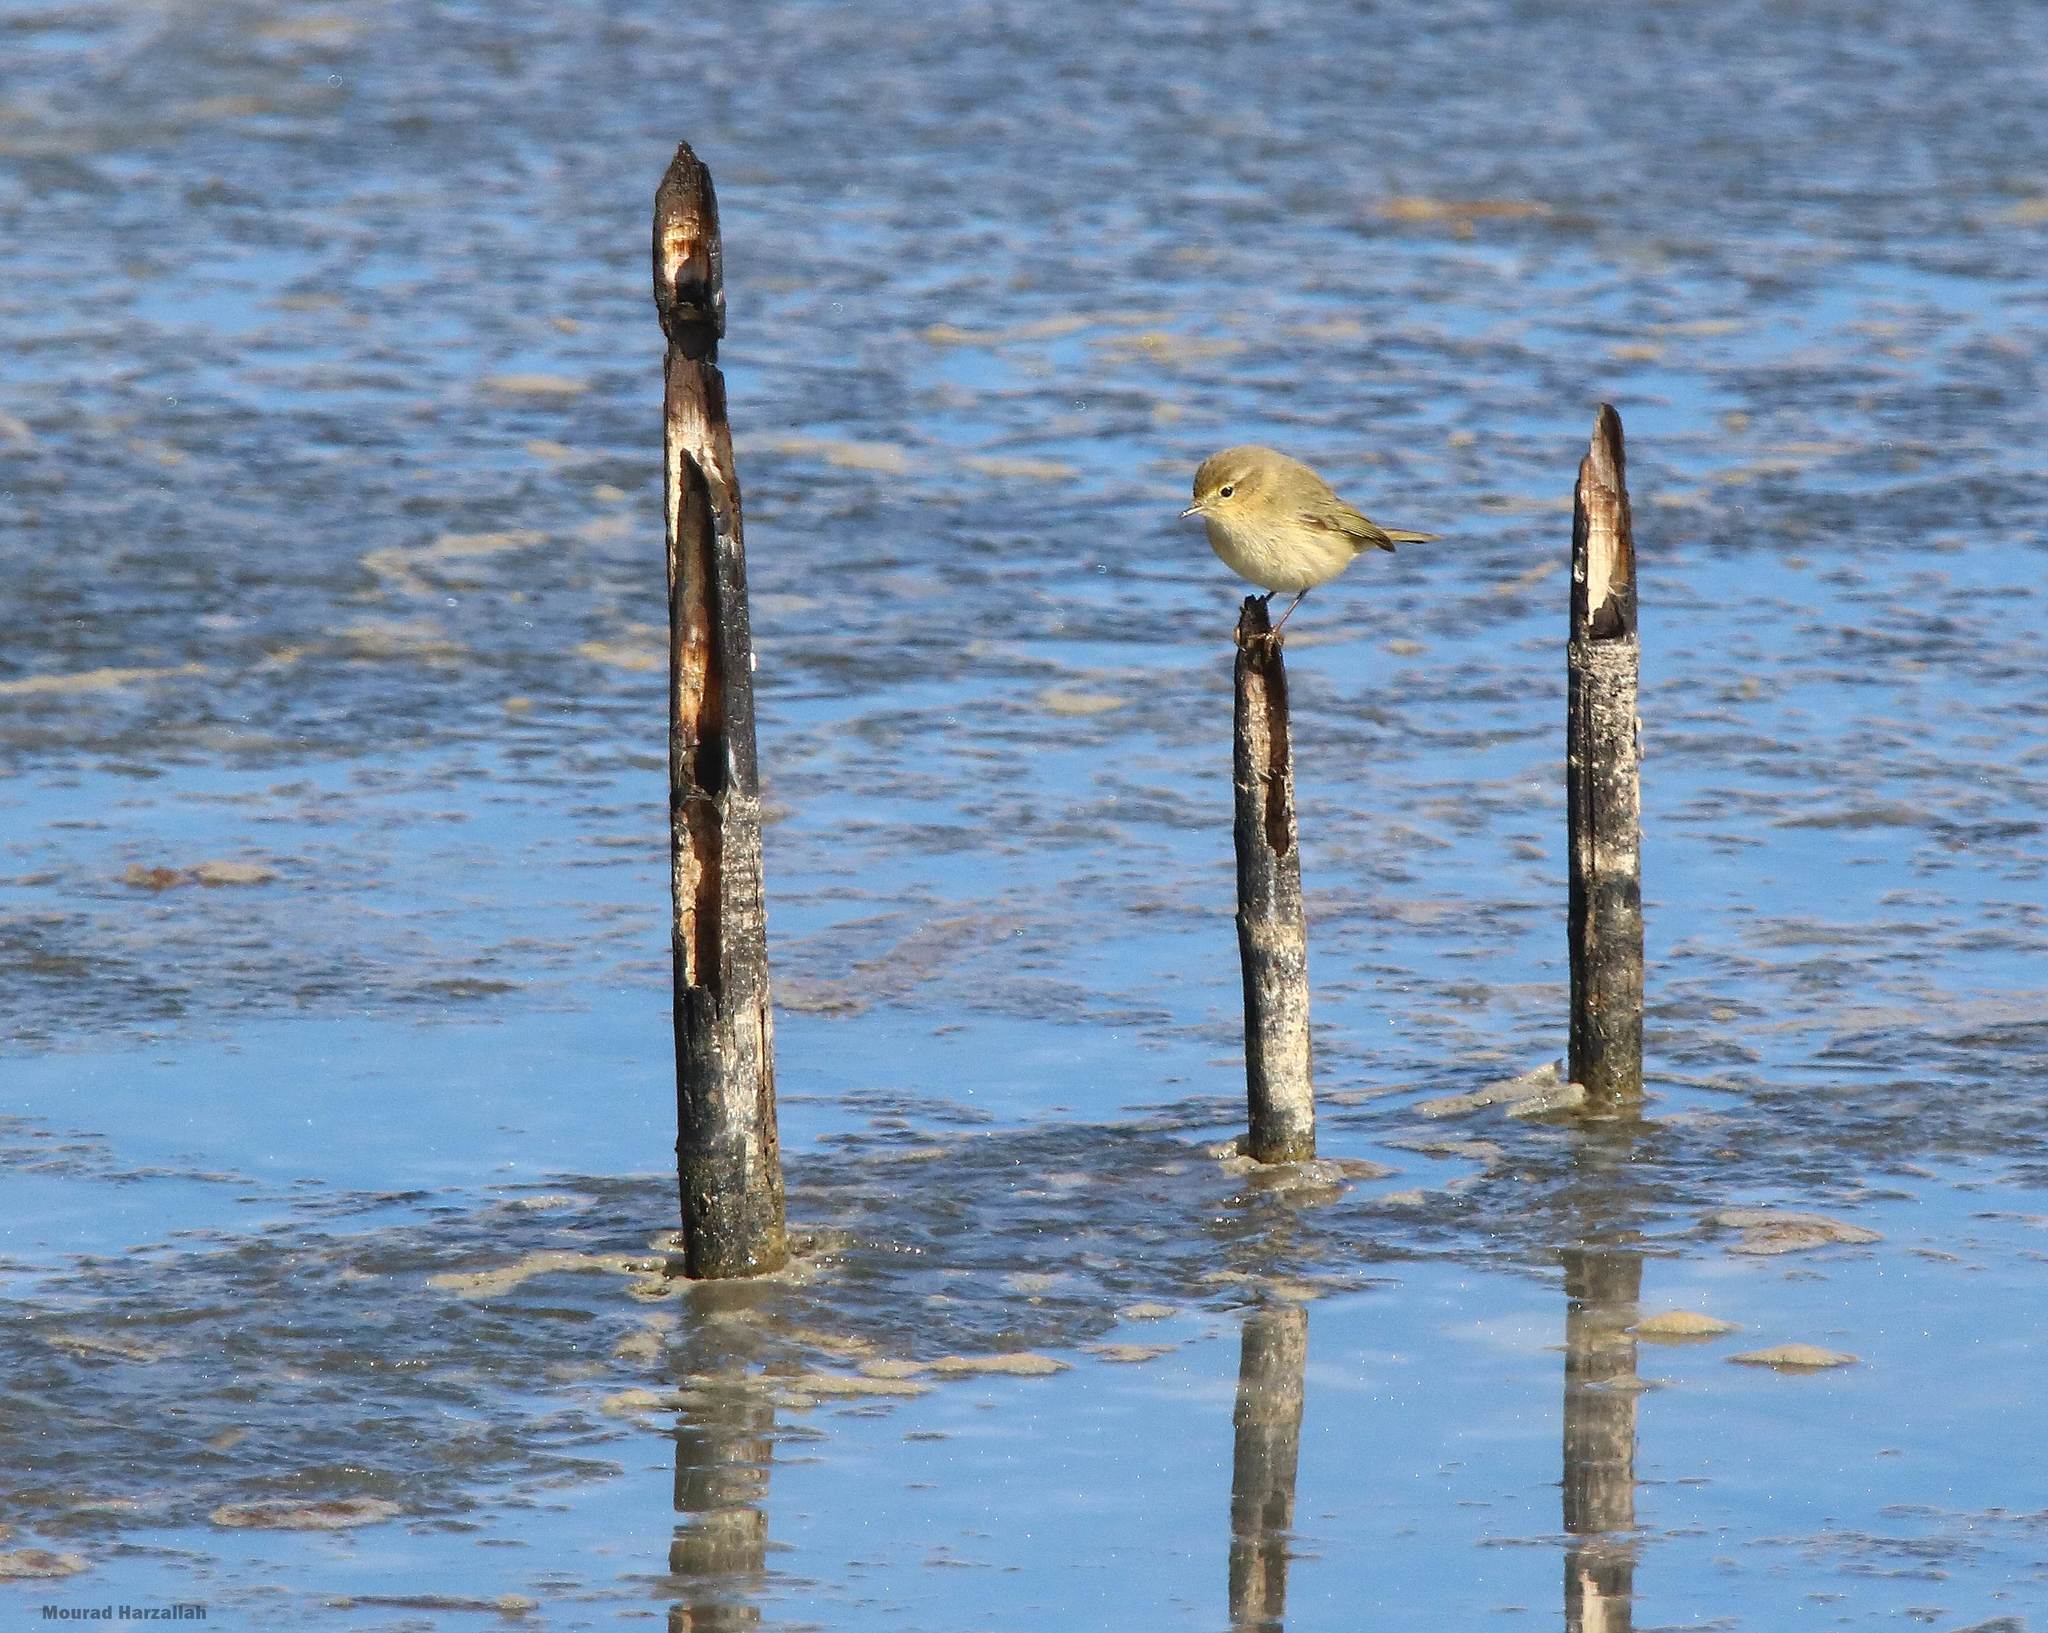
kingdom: Animalia
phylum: Chordata
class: Aves
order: Passeriformes
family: Phylloscopidae
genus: Phylloscopus
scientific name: Phylloscopus collybita
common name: Common chiffchaff
